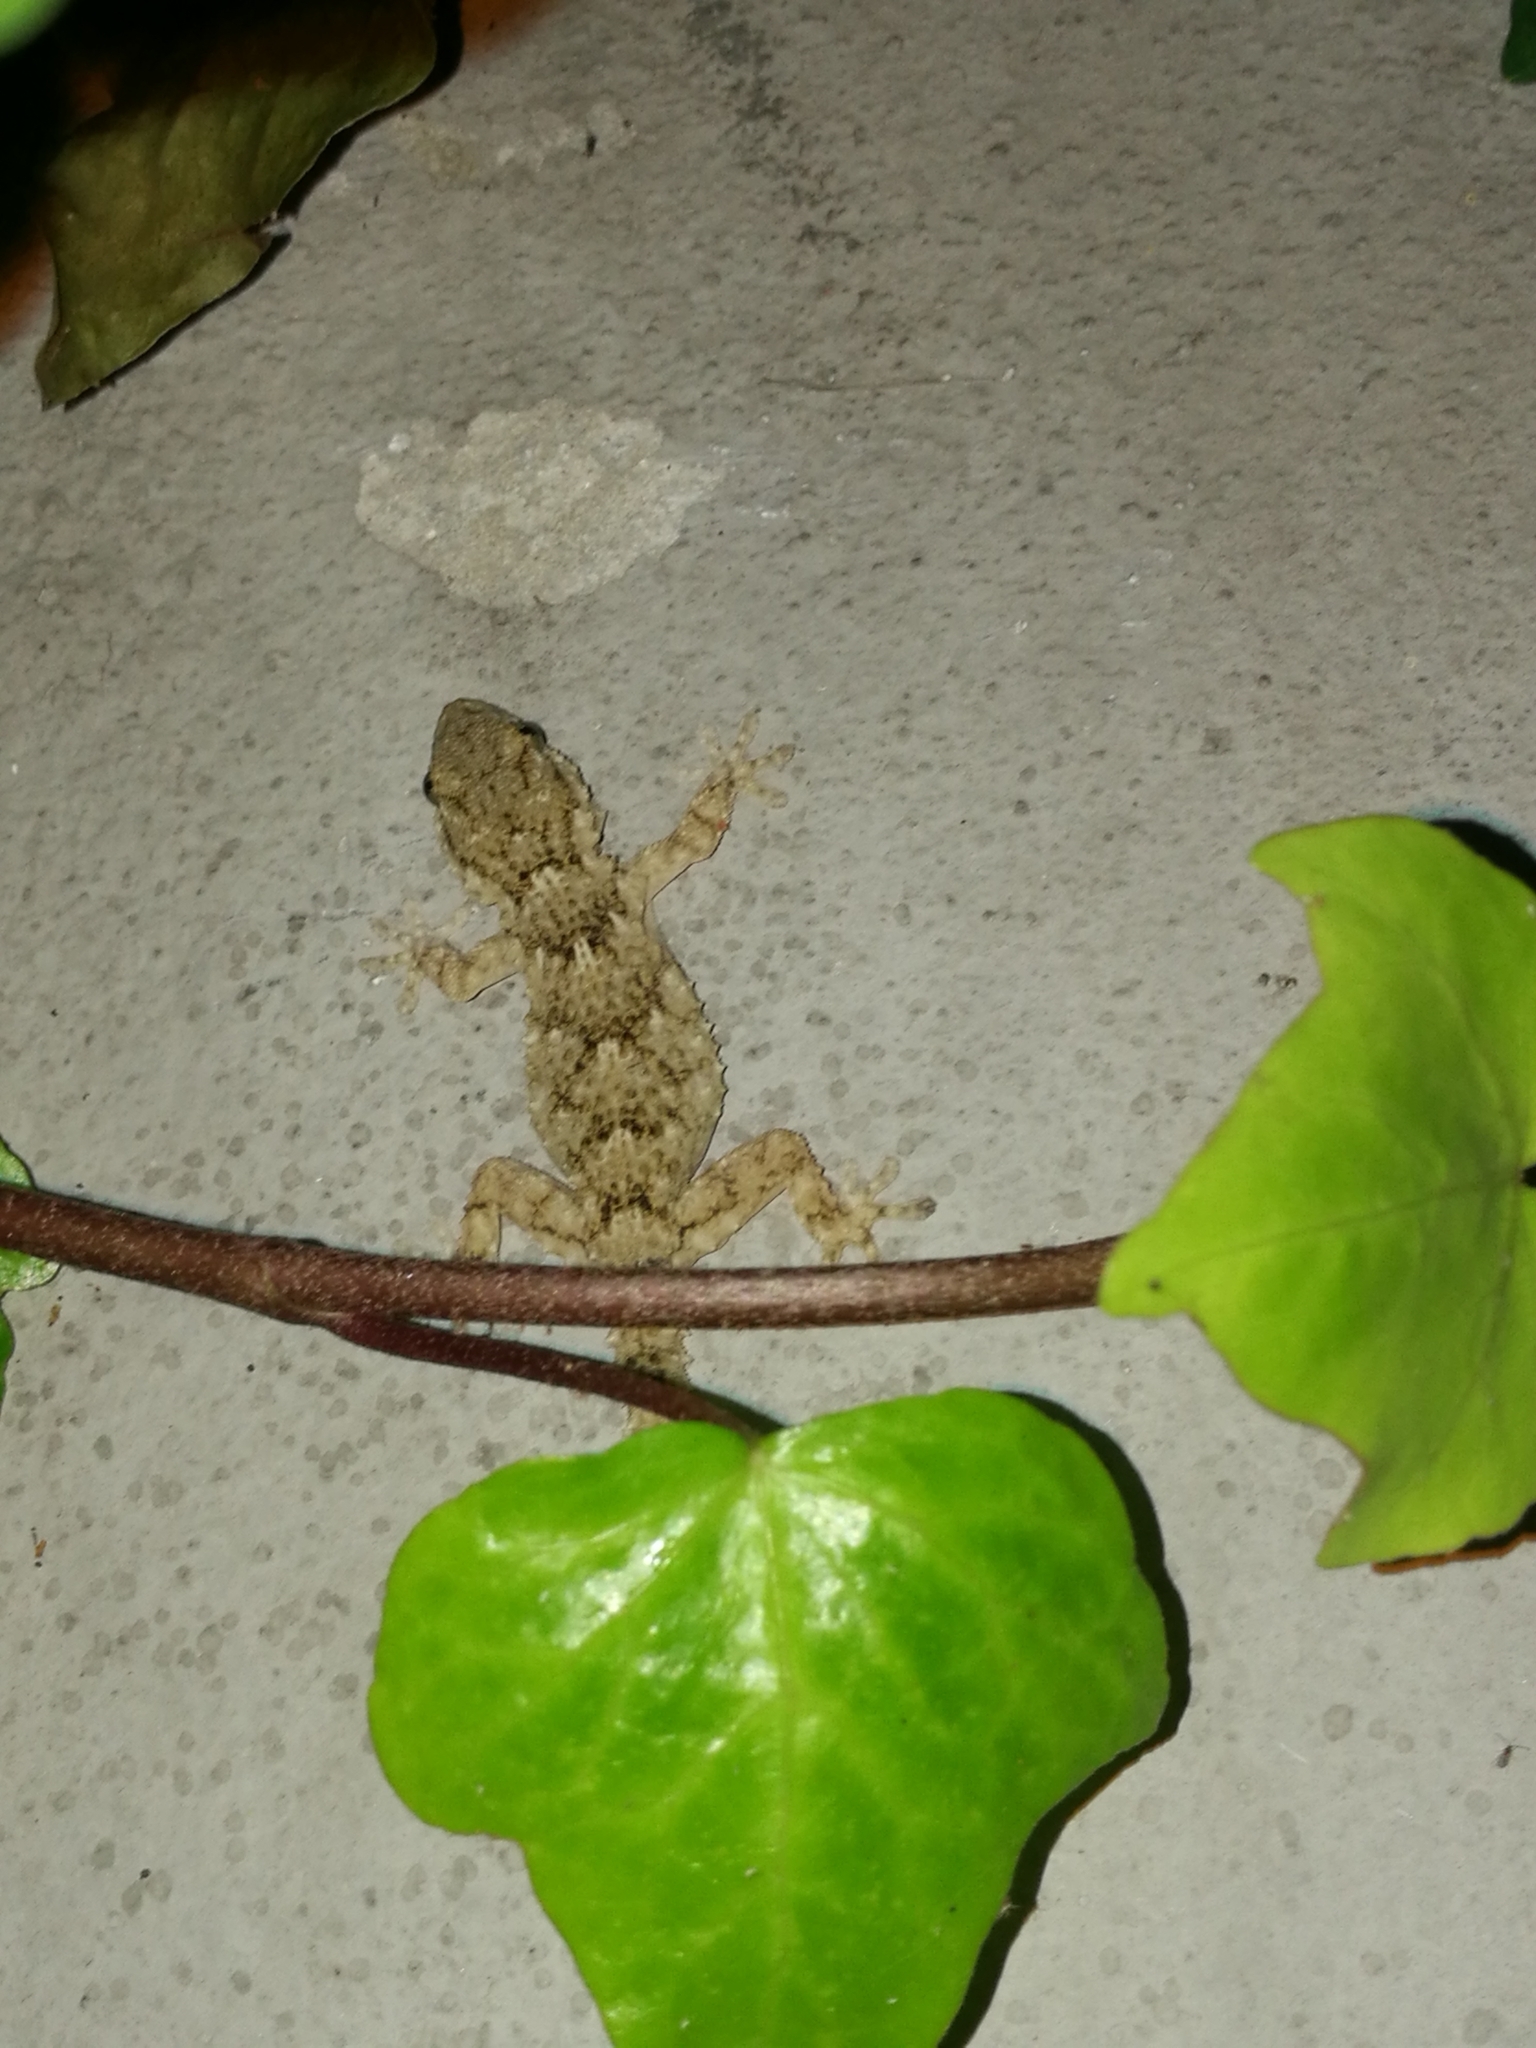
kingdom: Animalia
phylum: Chordata
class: Squamata
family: Phyllodactylidae
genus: Tarentola
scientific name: Tarentola mauritanica
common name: Moorish gecko
